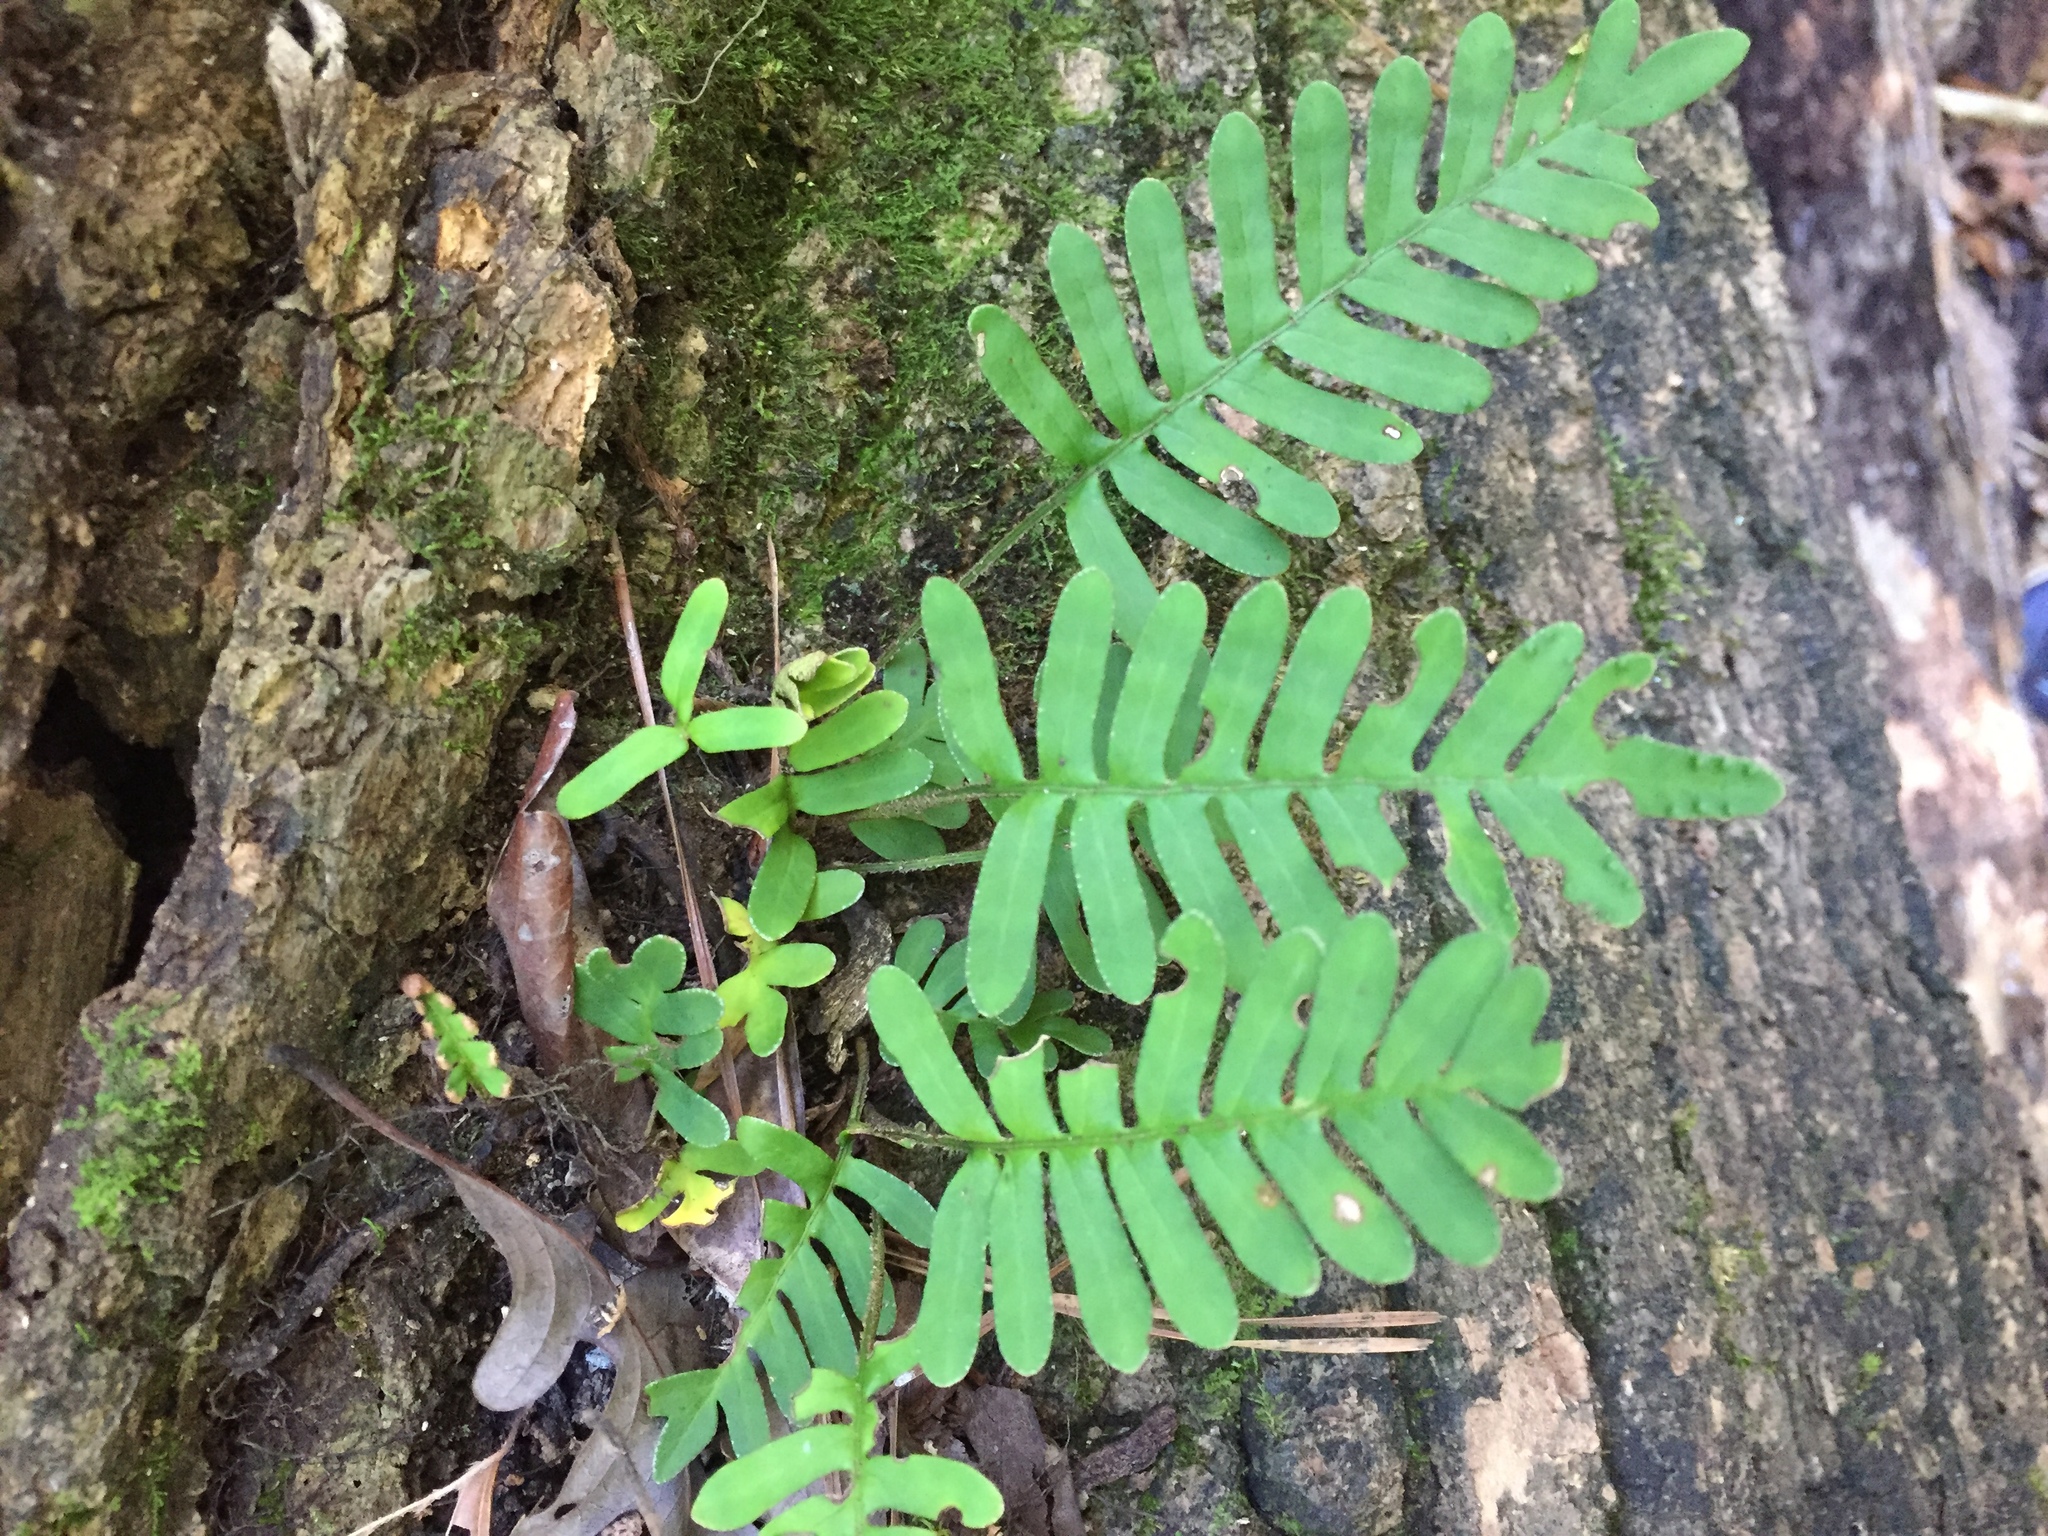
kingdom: Plantae
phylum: Tracheophyta
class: Polypodiopsida
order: Polypodiales
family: Polypodiaceae
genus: Pleopeltis
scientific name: Pleopeltis michauxiana
